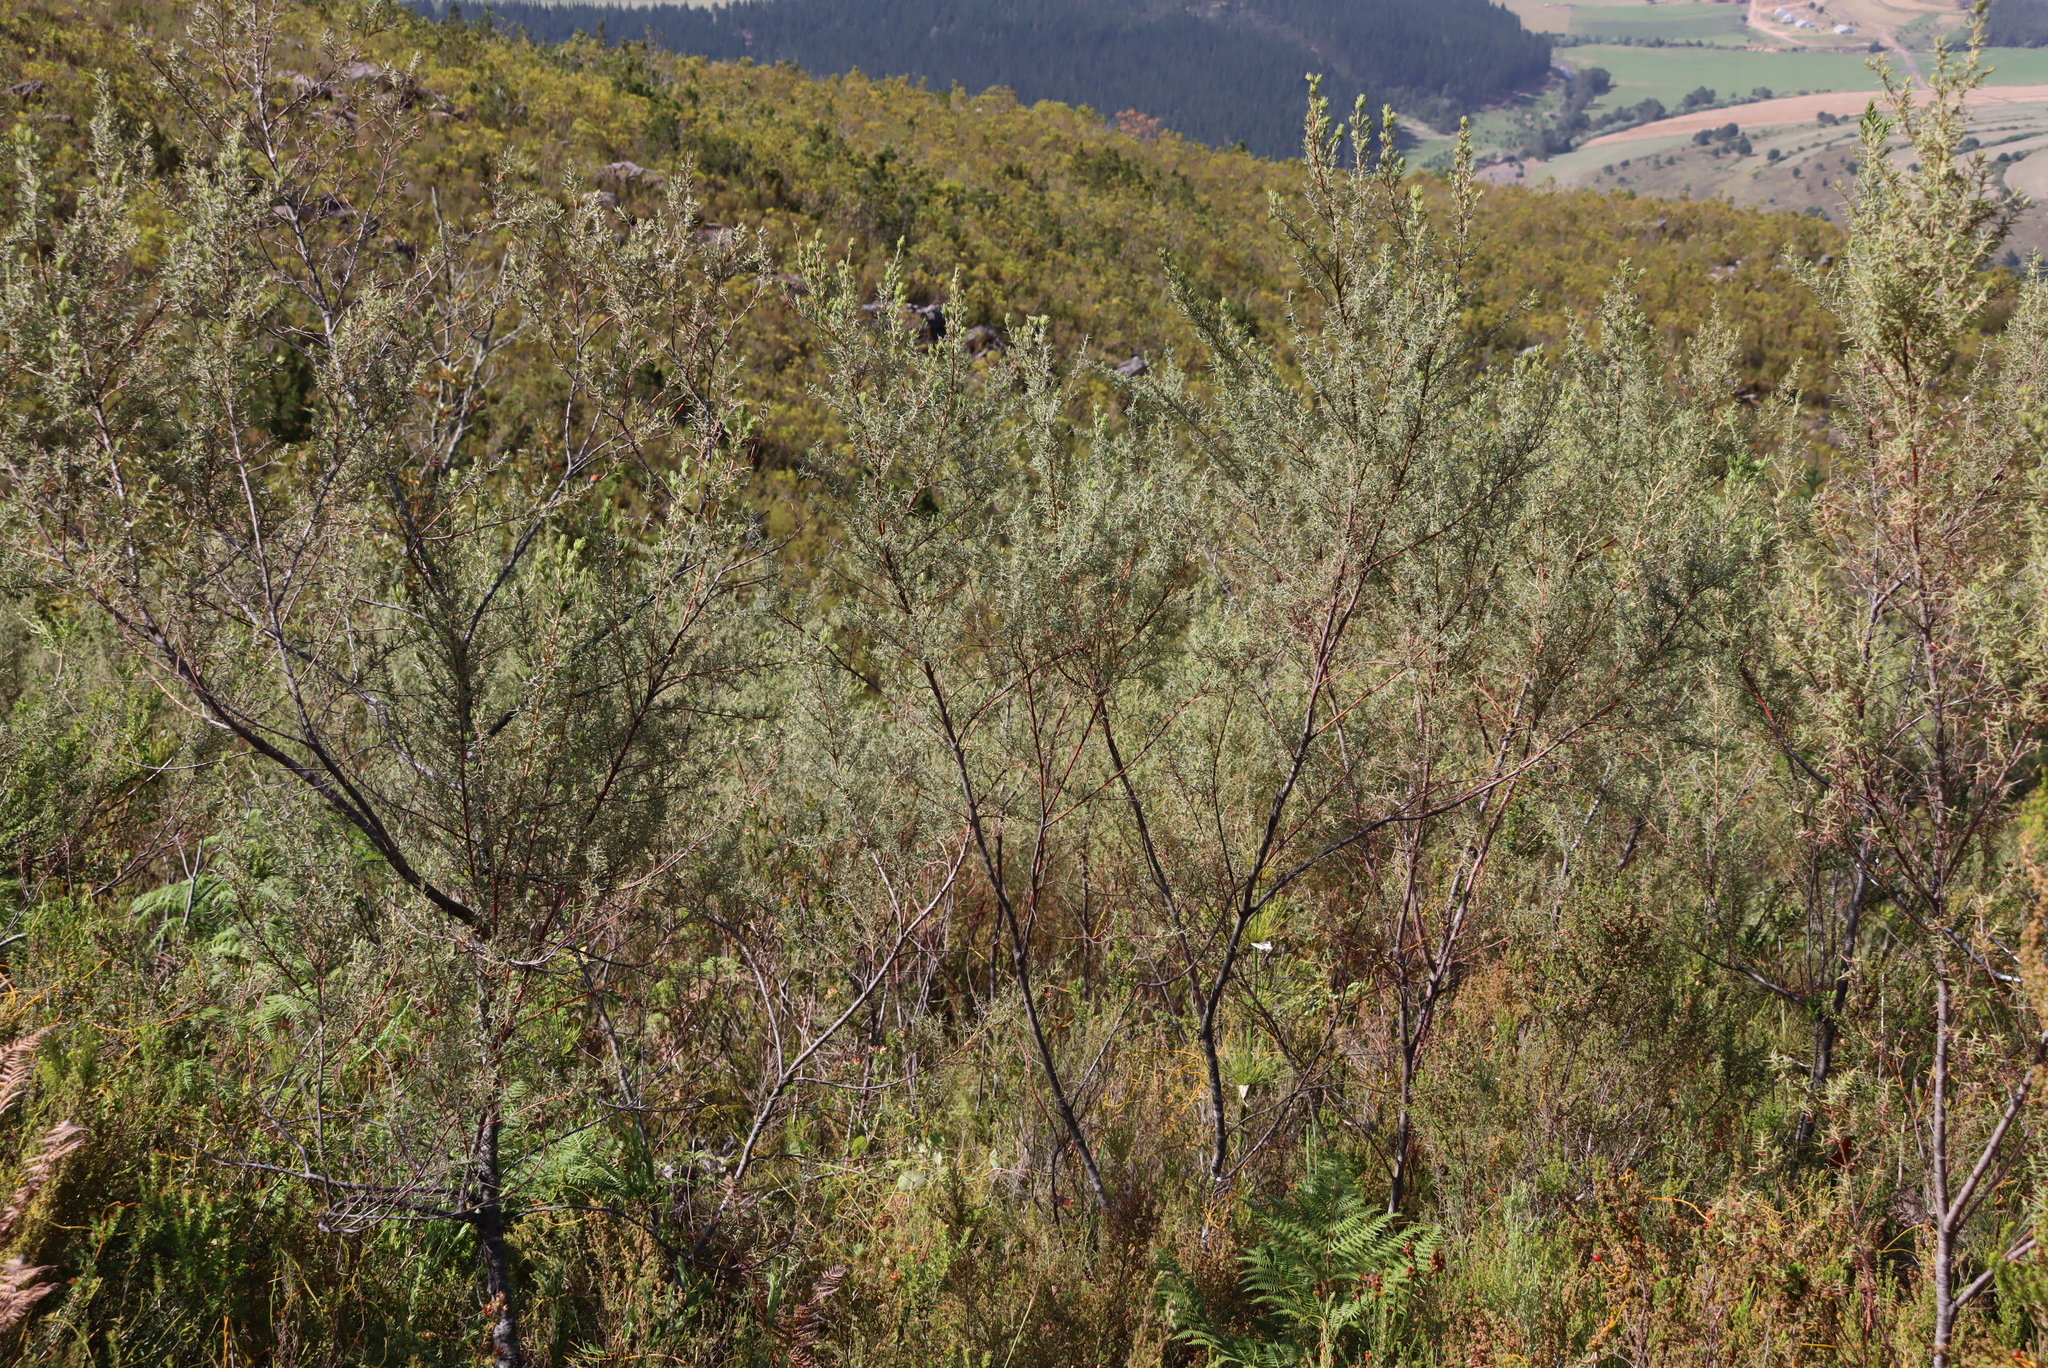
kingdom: Plantae
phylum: Tracheophyta
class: Magnoliopsida
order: Cornales
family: Grubbiaceae
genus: Grubbia
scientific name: Grubbia rosmarinifolia
